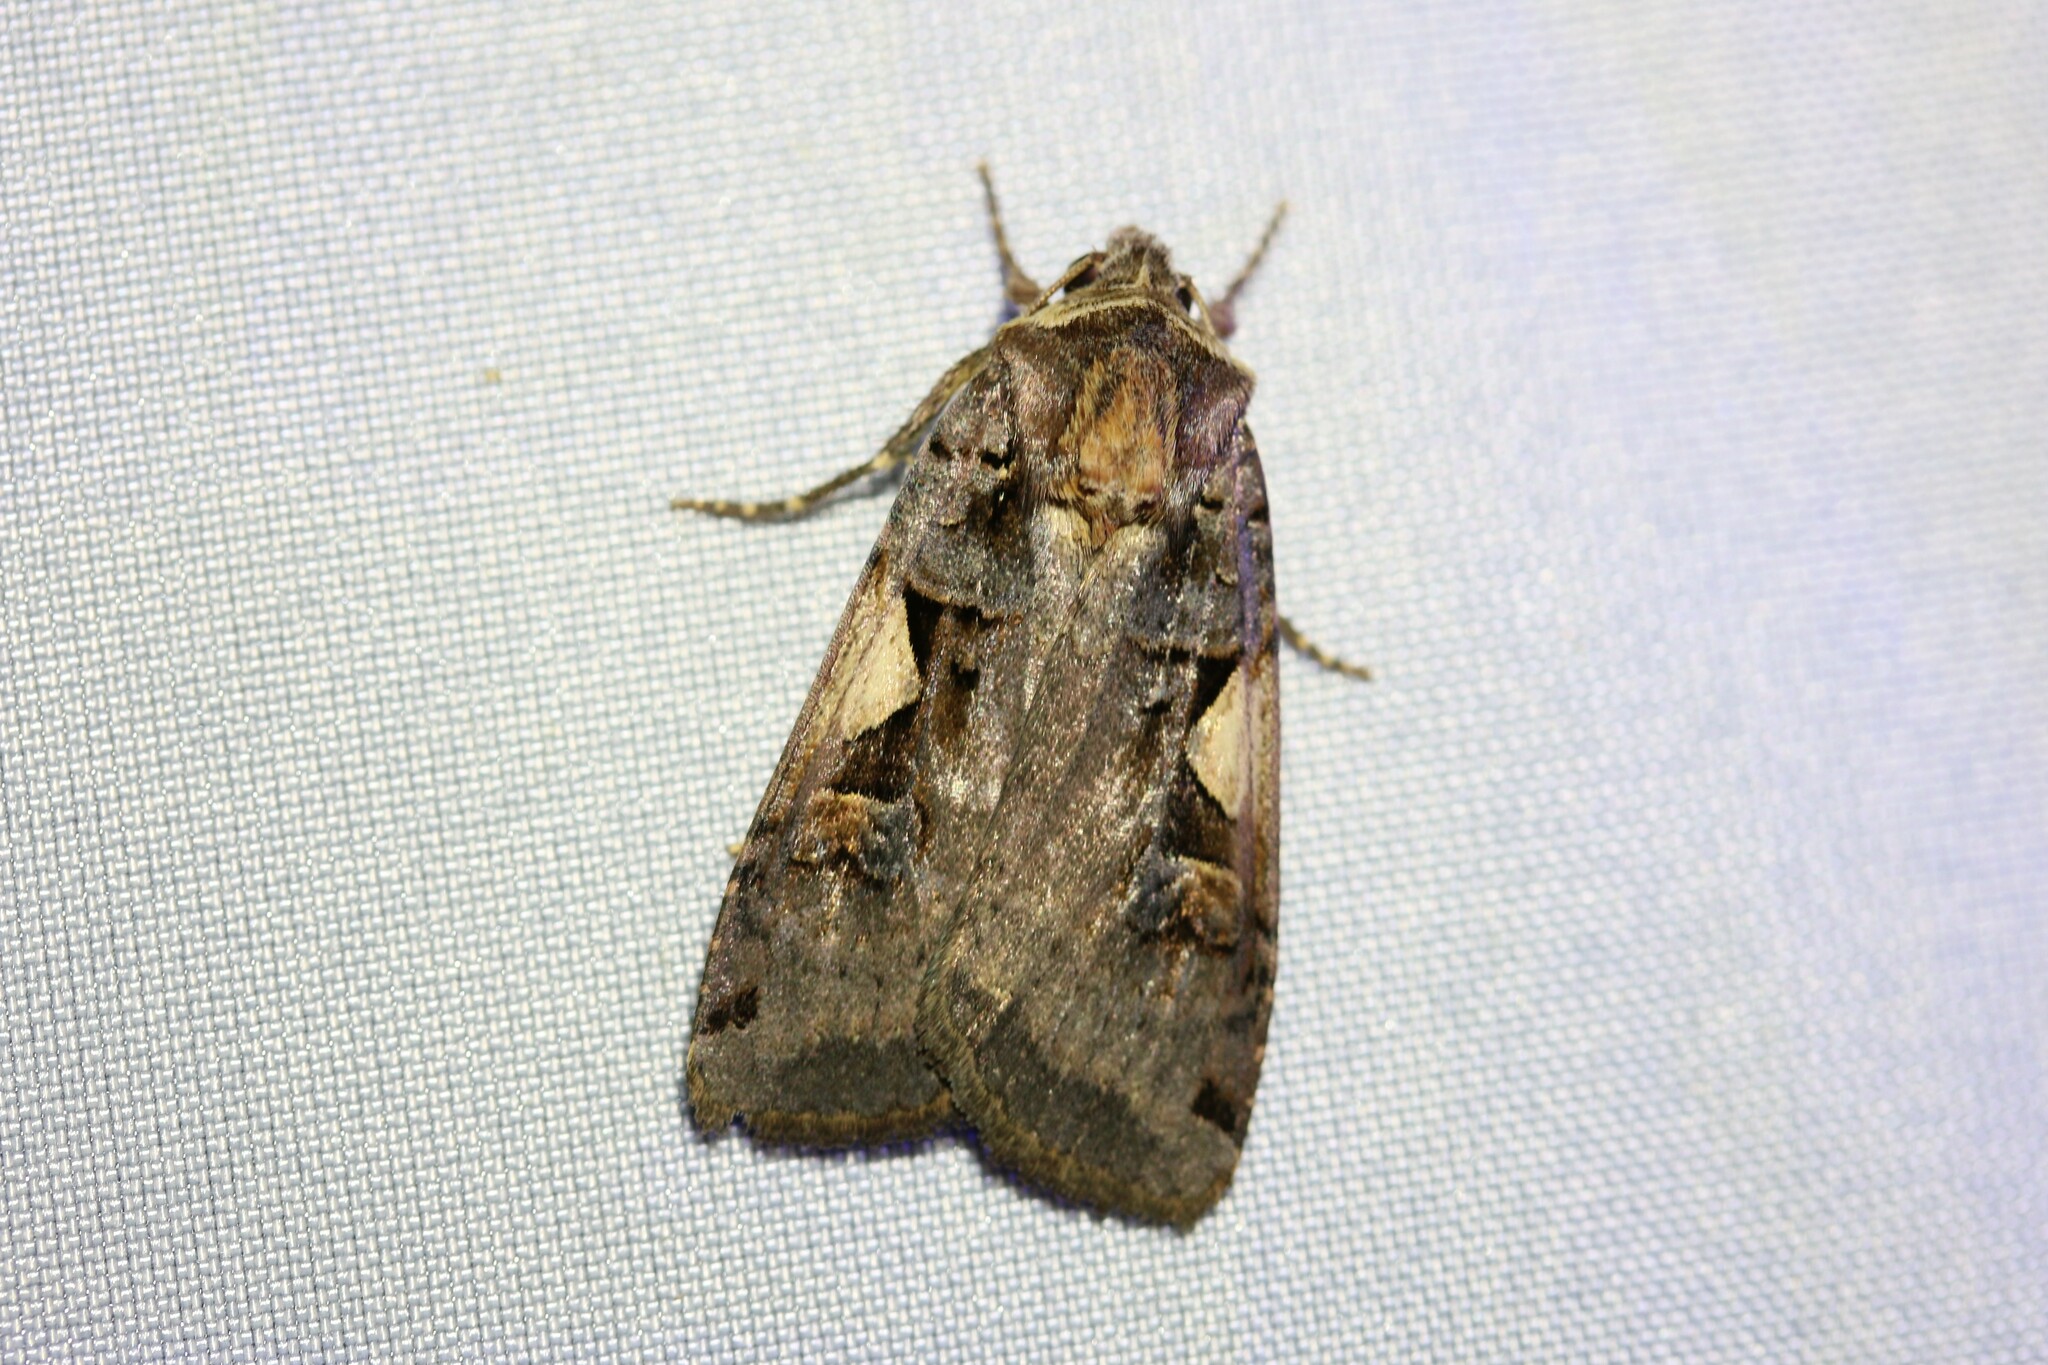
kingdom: Animalia
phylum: Arthropoda
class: Insecta
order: Lepidoptera
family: Noctuidae
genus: Xestia
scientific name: Xestia c-nigrum
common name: Setaceous hebrew character
